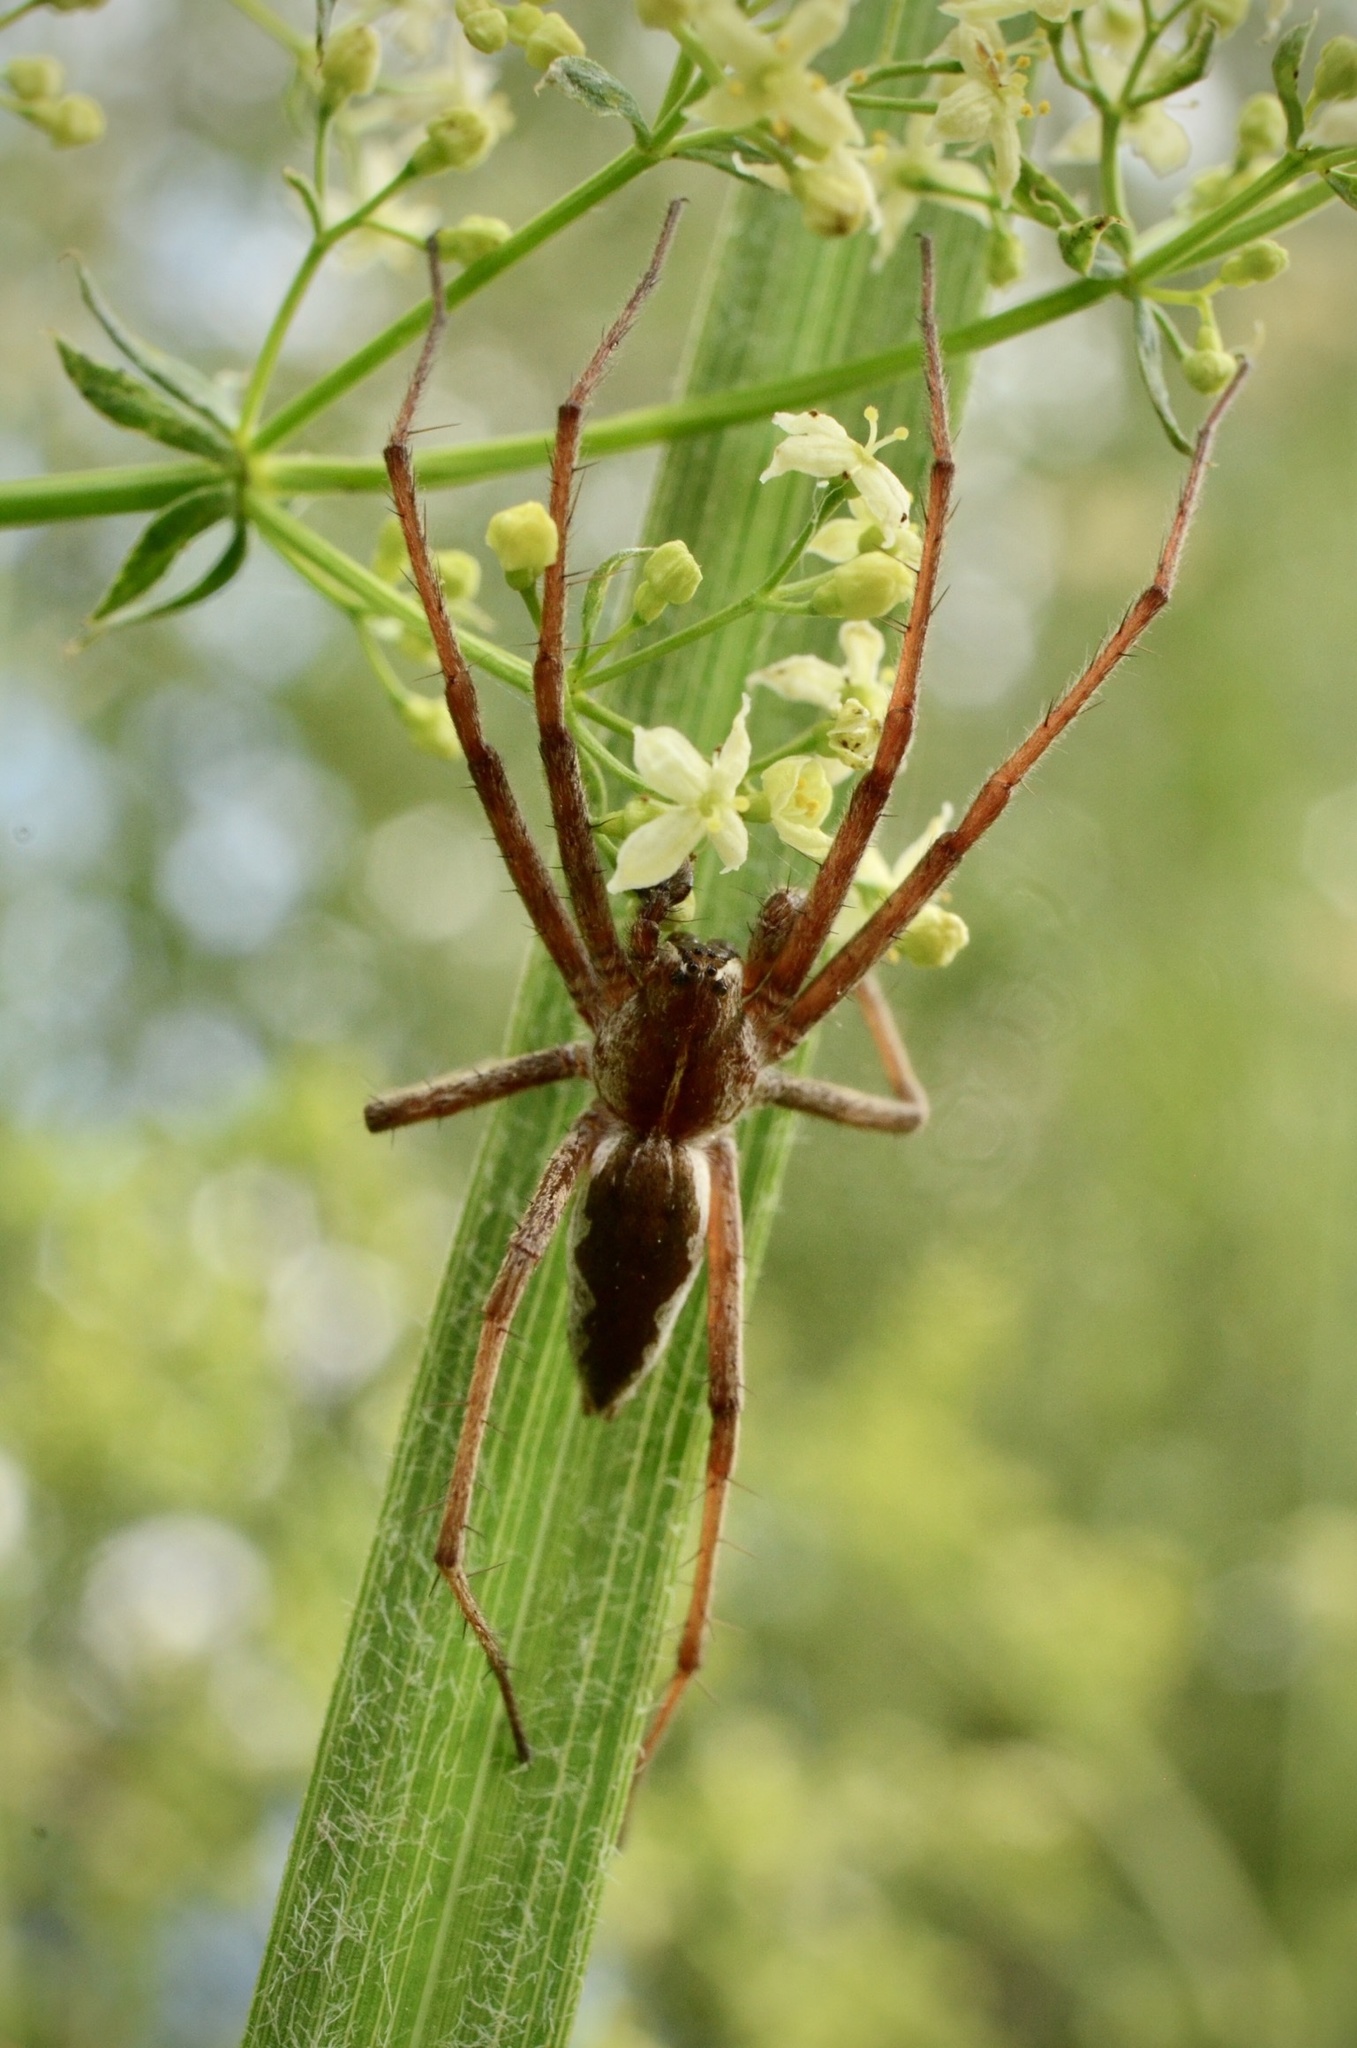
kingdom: Animalia
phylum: Arthropoda
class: Arachnida
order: Araneae
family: Pisauridae
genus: Pisaura
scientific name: Pisaura mirabilis
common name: Tent spider
